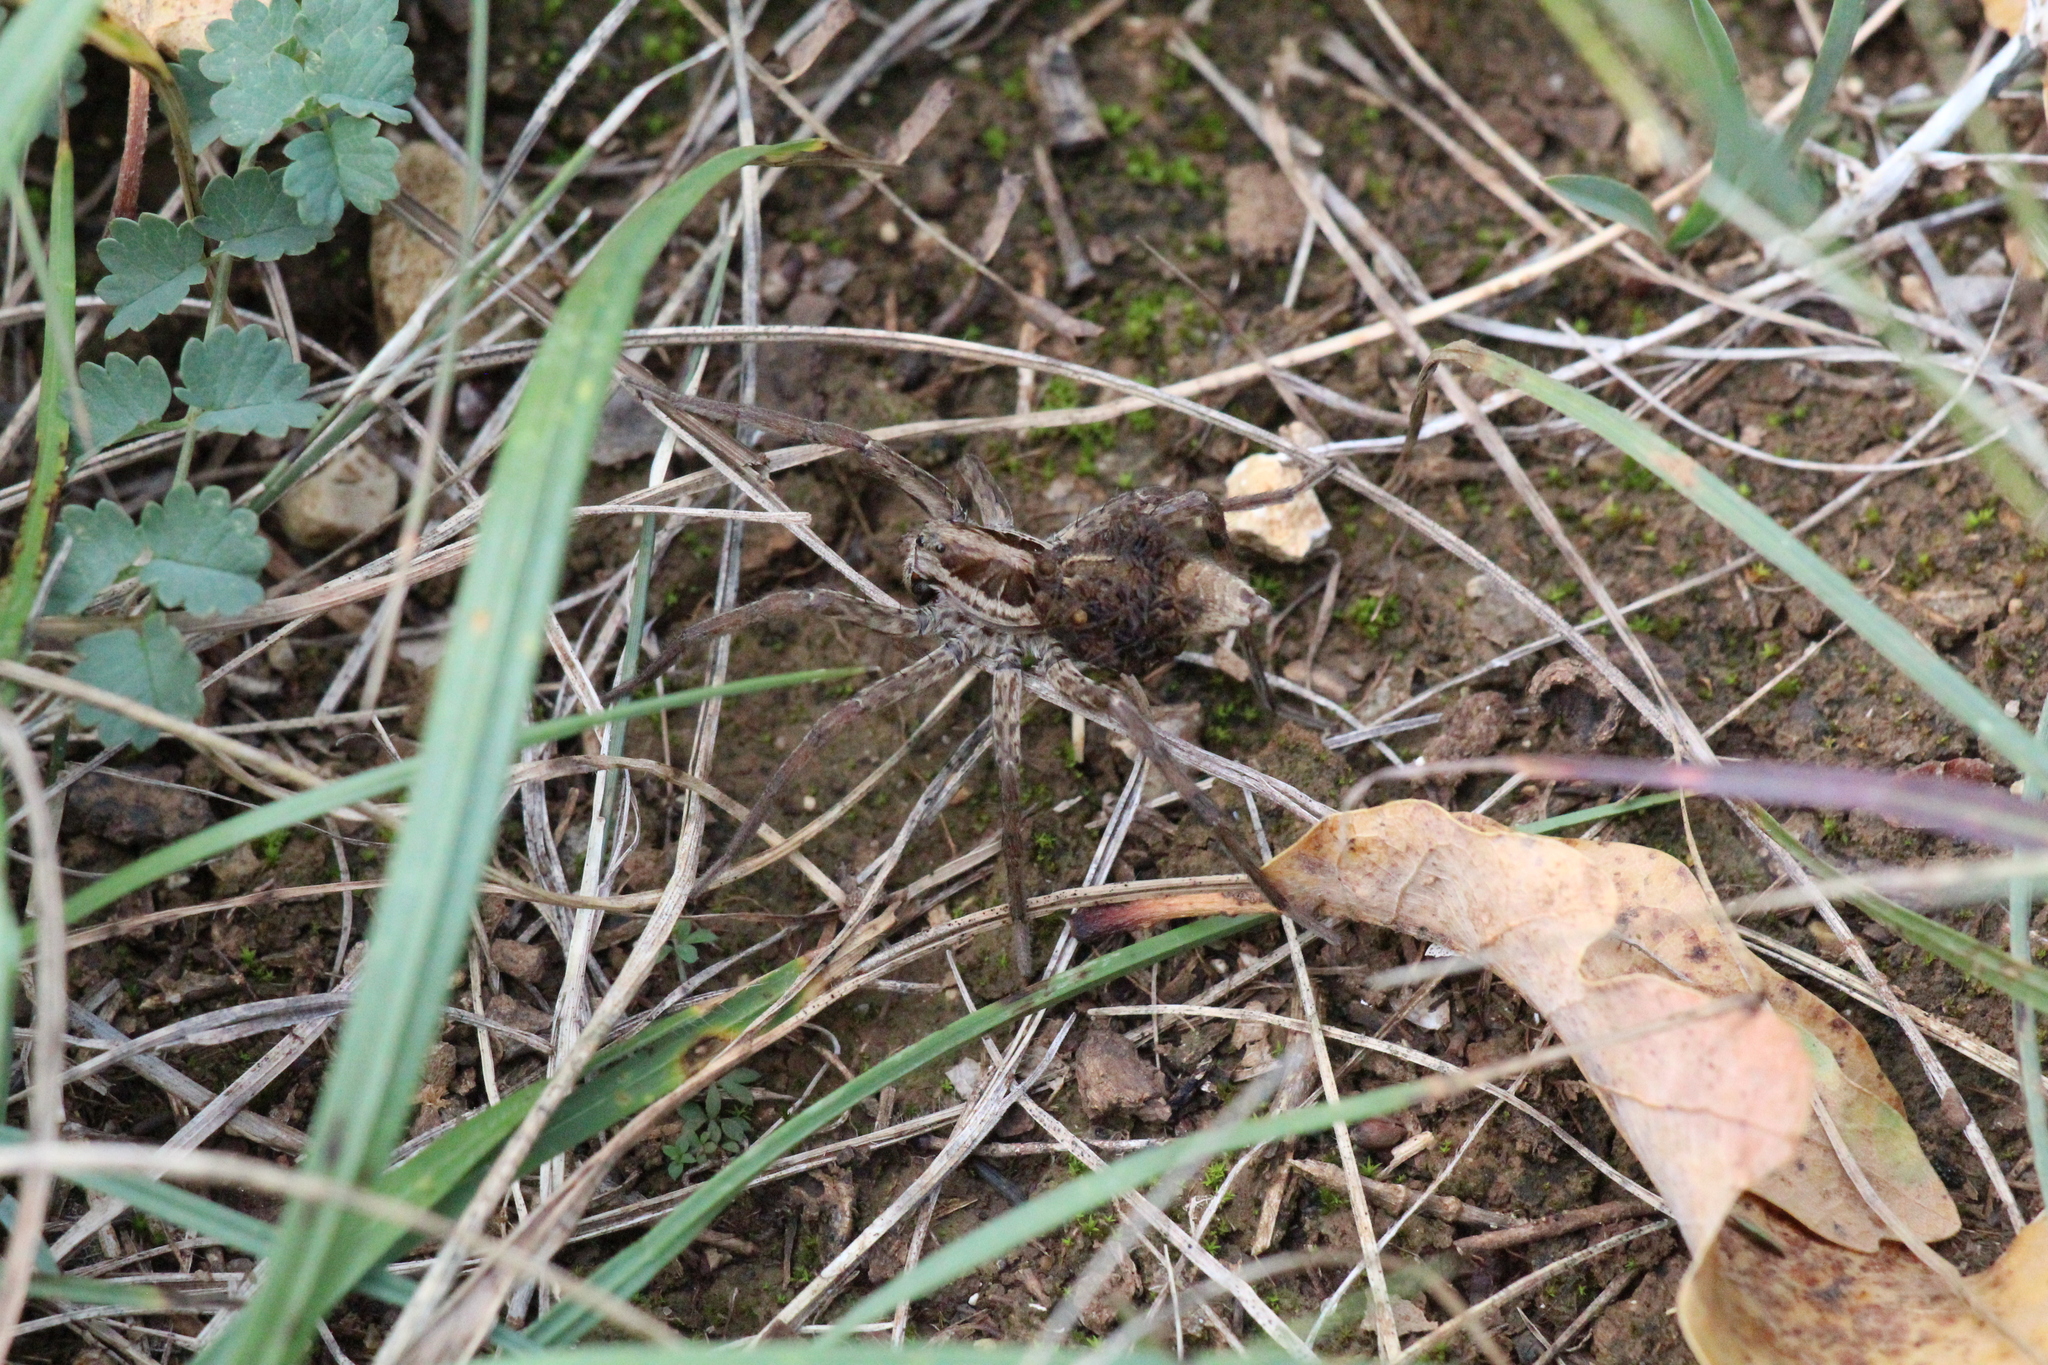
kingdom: Animalia
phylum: Arthropoda
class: Arachnida
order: Araneae
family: Lycosidae
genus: Hogna
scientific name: Hogna radiata
